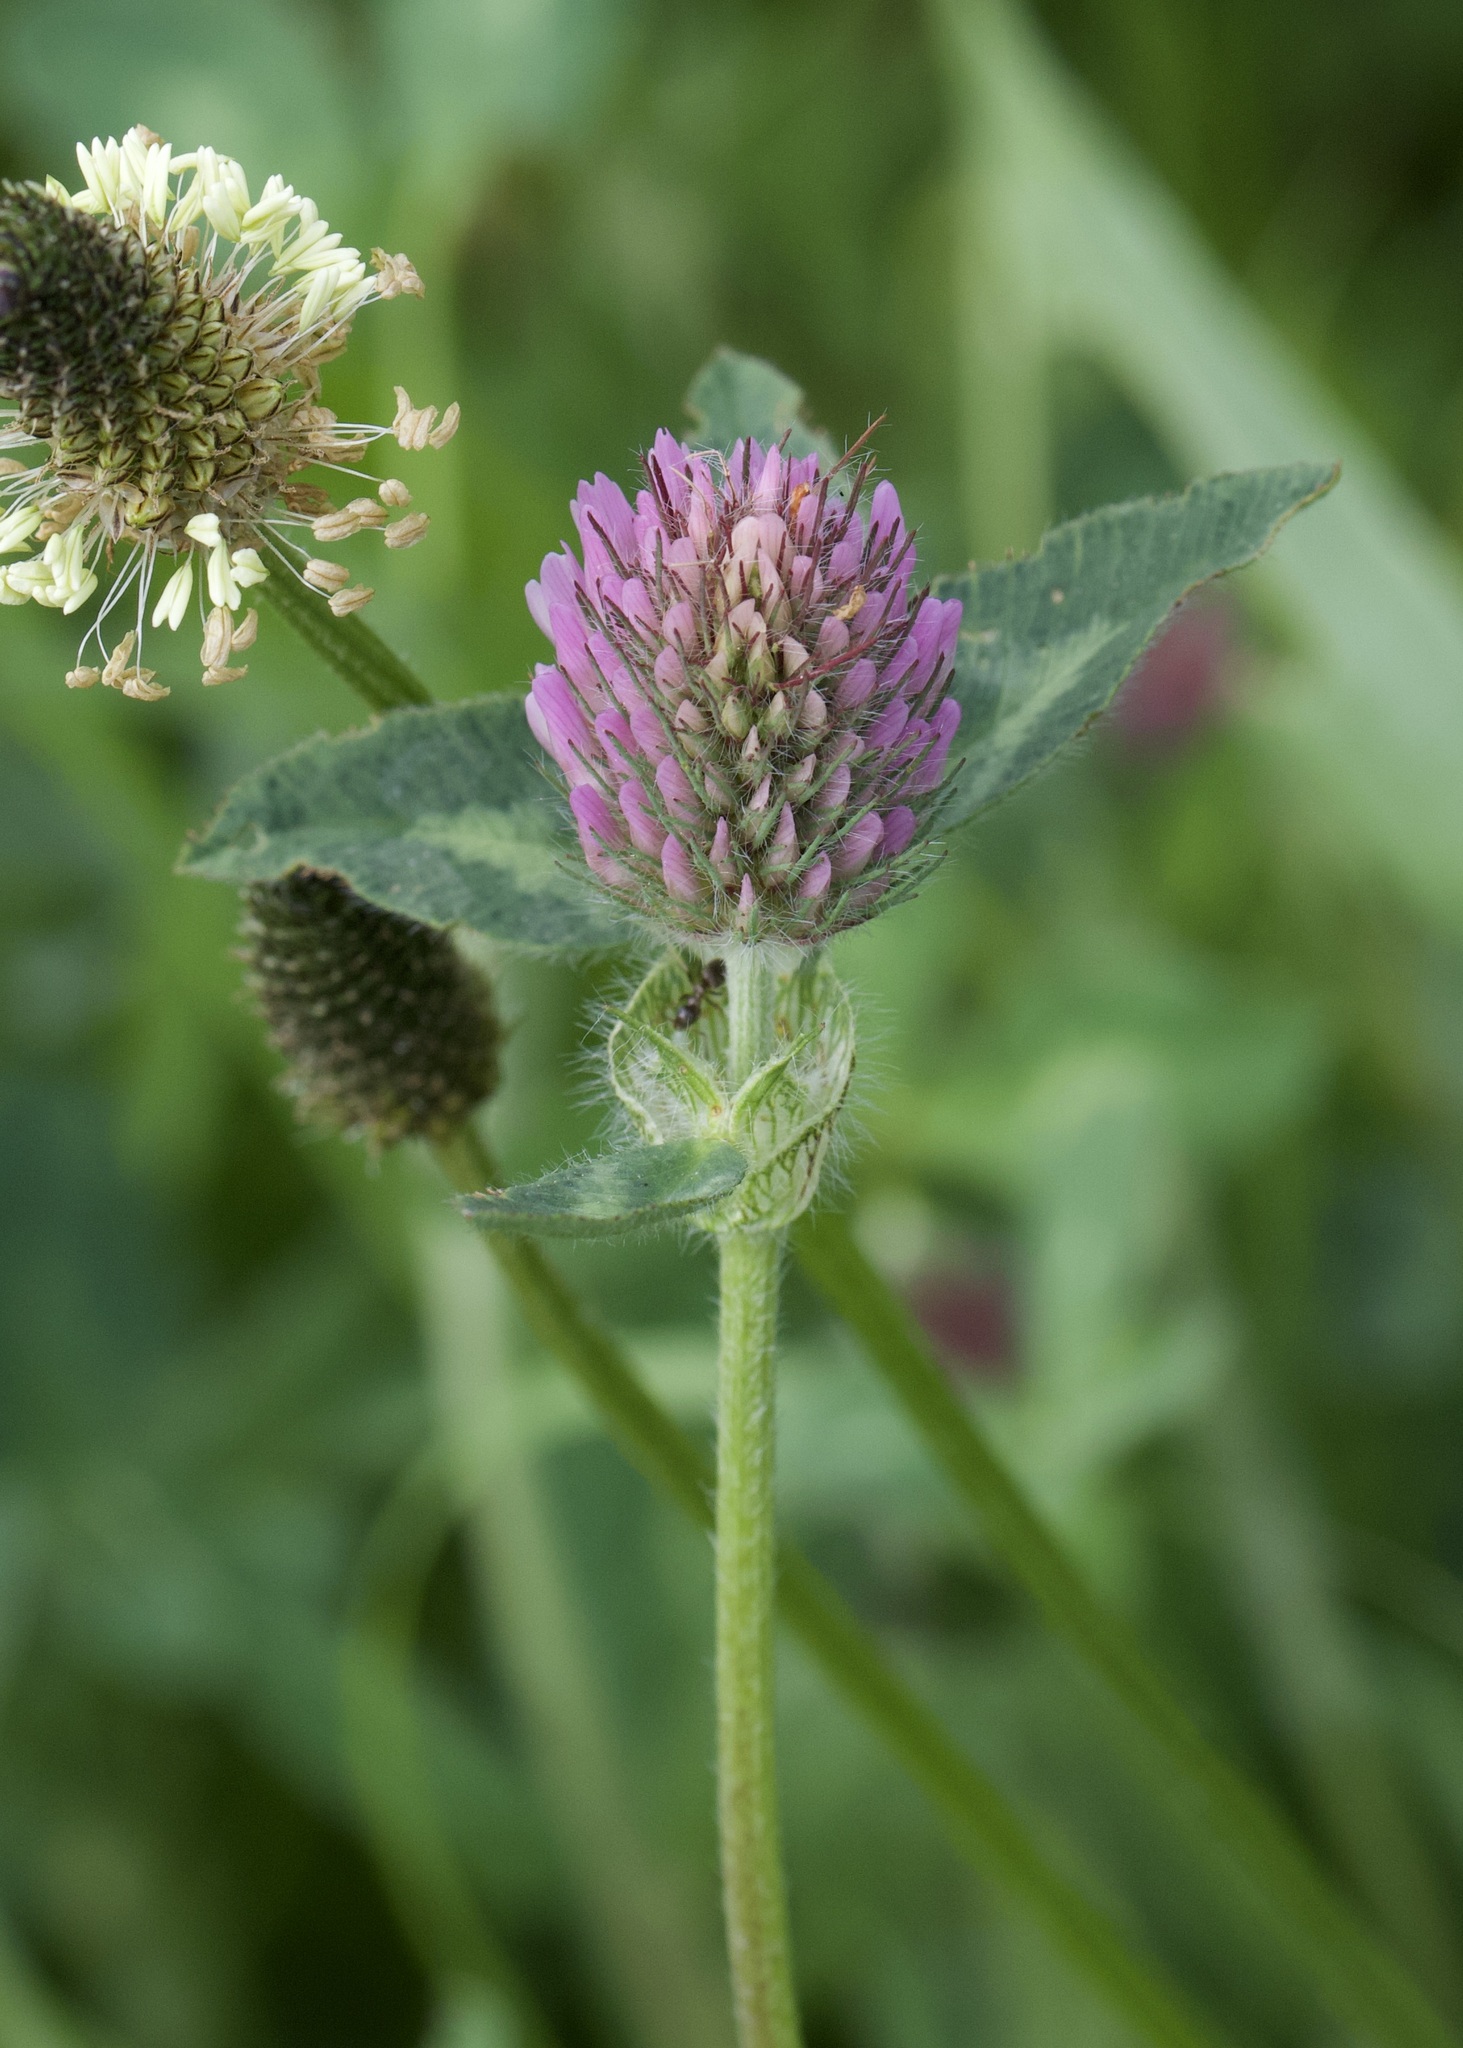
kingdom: Plantae
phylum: Tracheophyta
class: Magnoliopsida
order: Fabales
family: Fabaceae
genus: Trifolium
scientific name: Trifolium pratense
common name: Red clover
